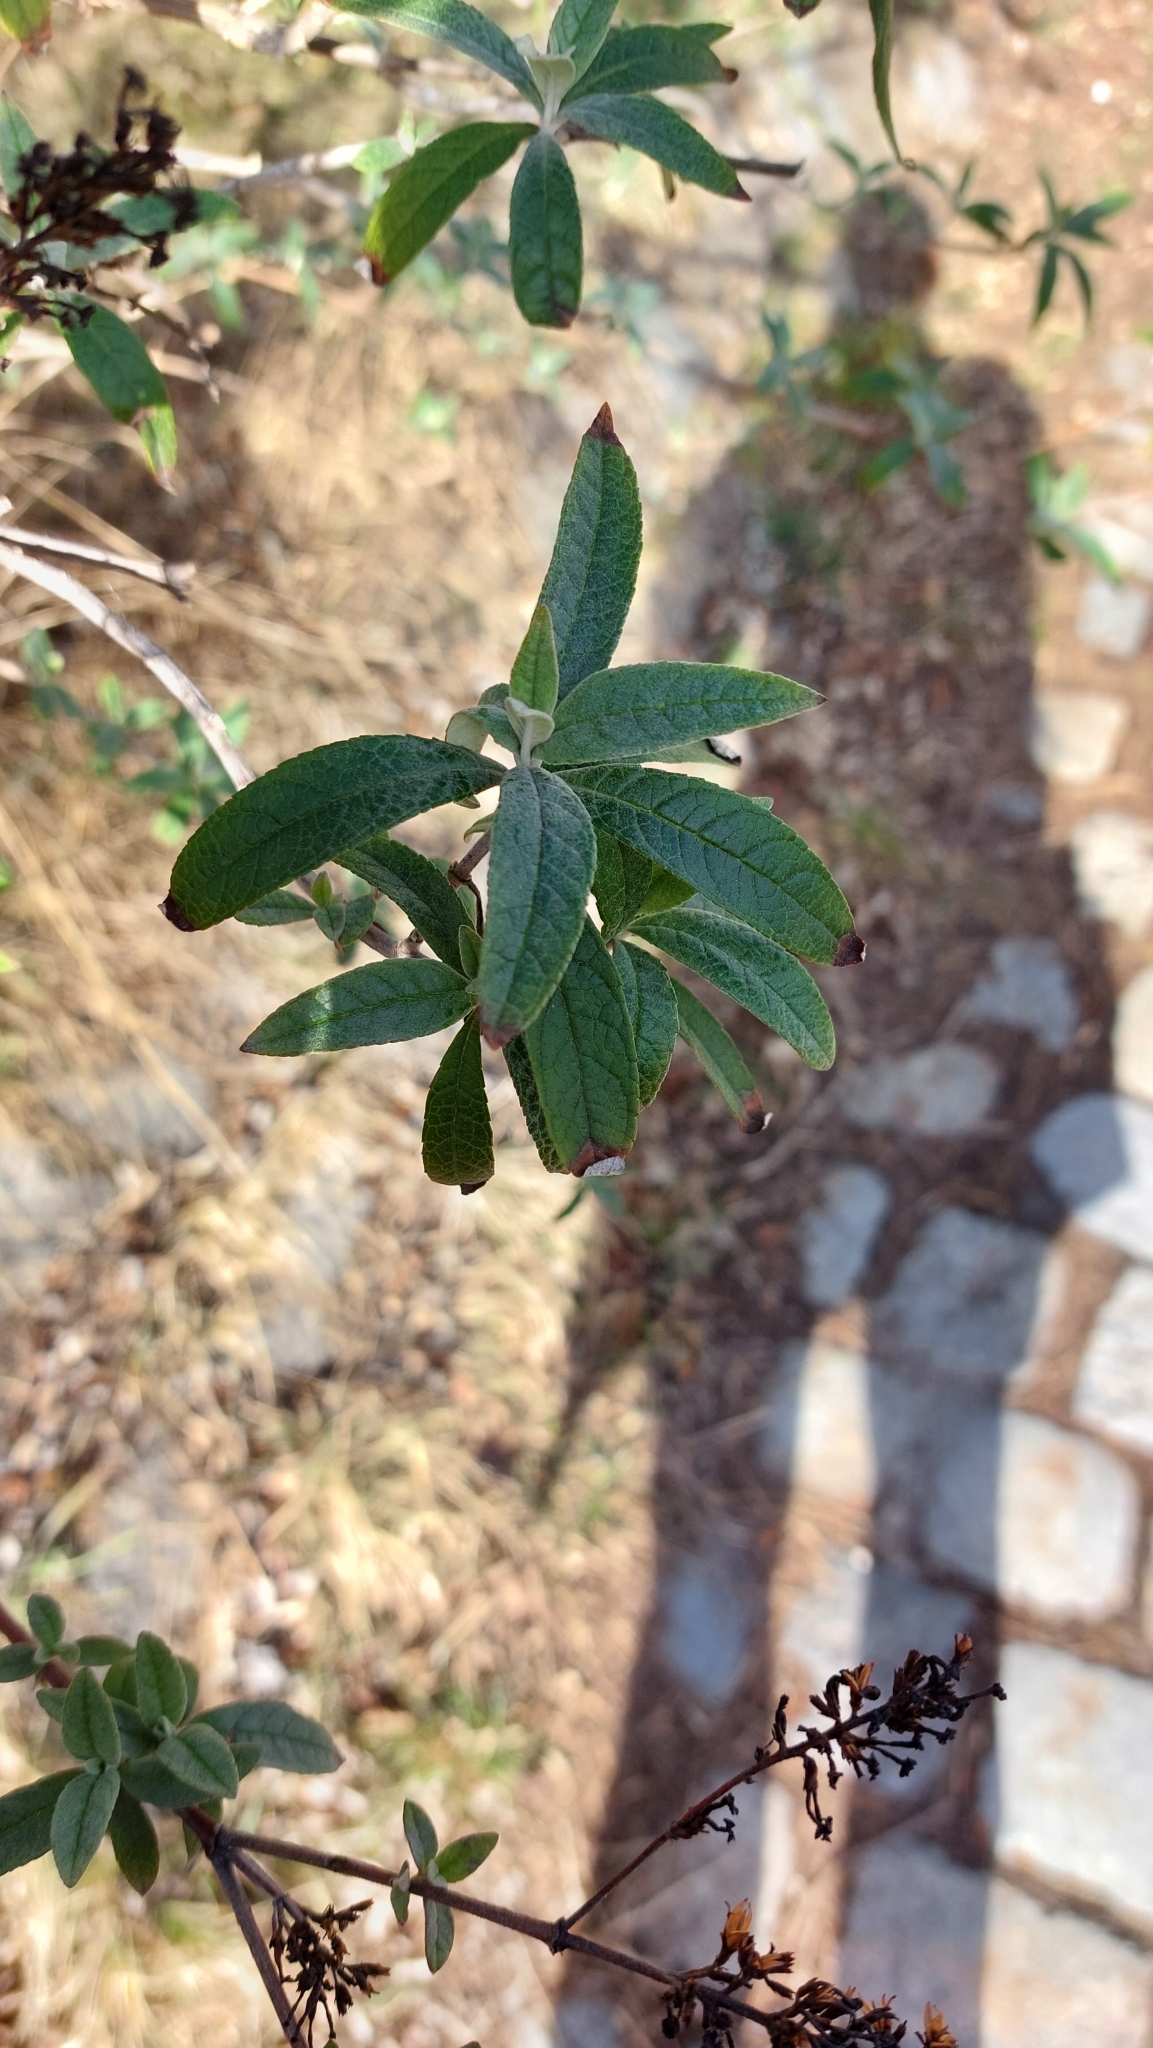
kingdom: Plantae
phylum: Tracheophyta
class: Magnoliopsida
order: Lamiales
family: Scrophulariaceae
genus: Buddleja
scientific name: Buddleja davidii
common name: Butterfly-bush
